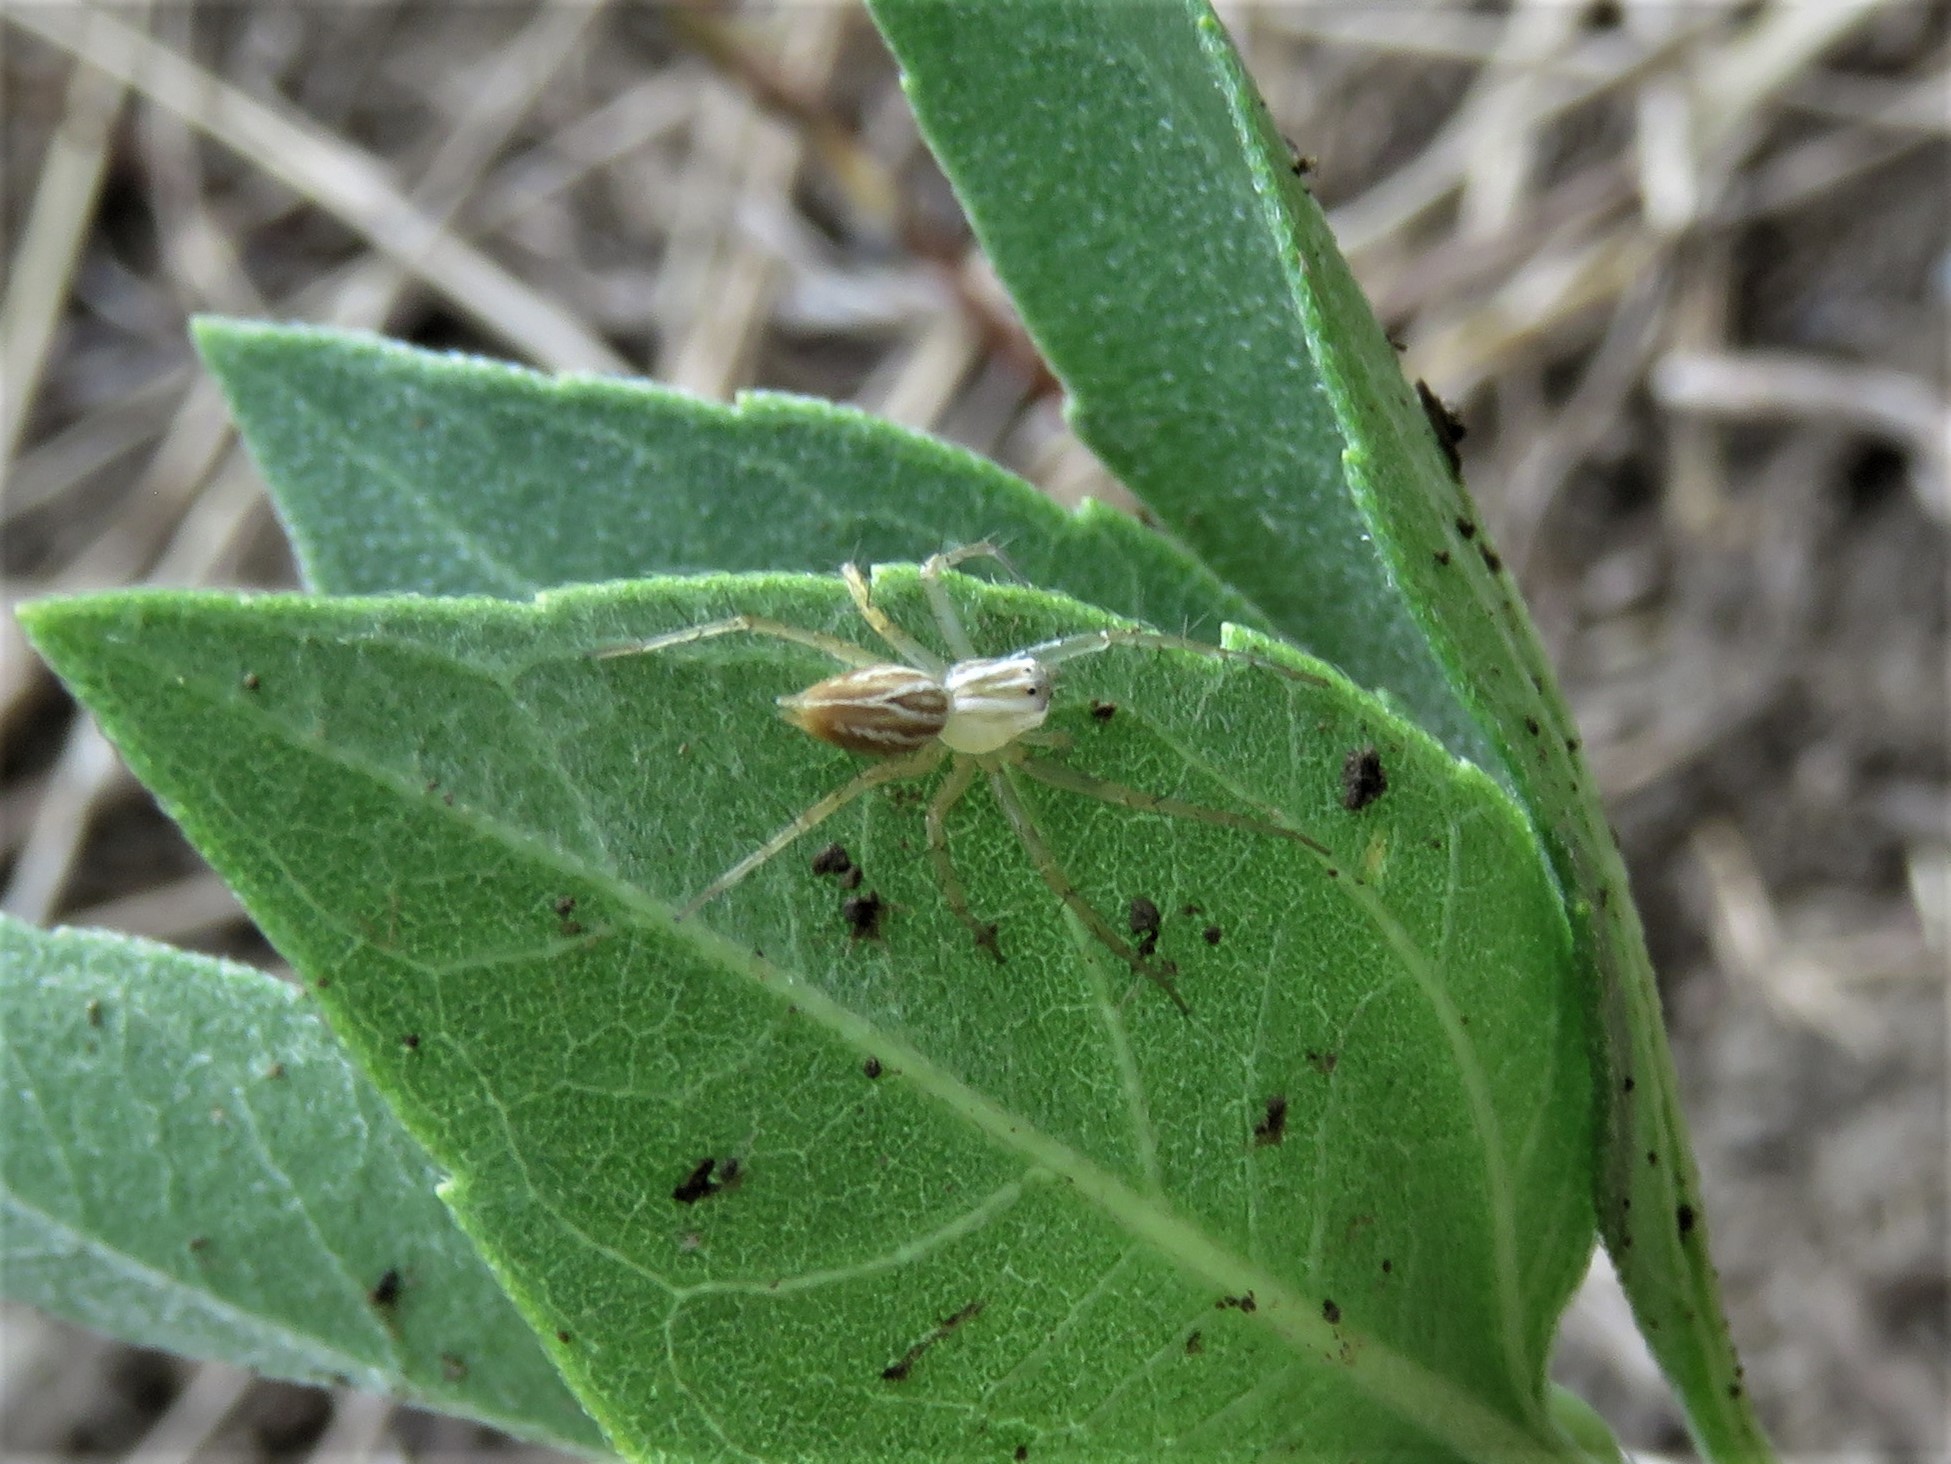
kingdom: Animalia
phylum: Arthropoda
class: Arachnida
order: Araneae
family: Oxyopidae
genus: Oxyopes
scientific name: Oxyopes salticus
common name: Lynx spiders
